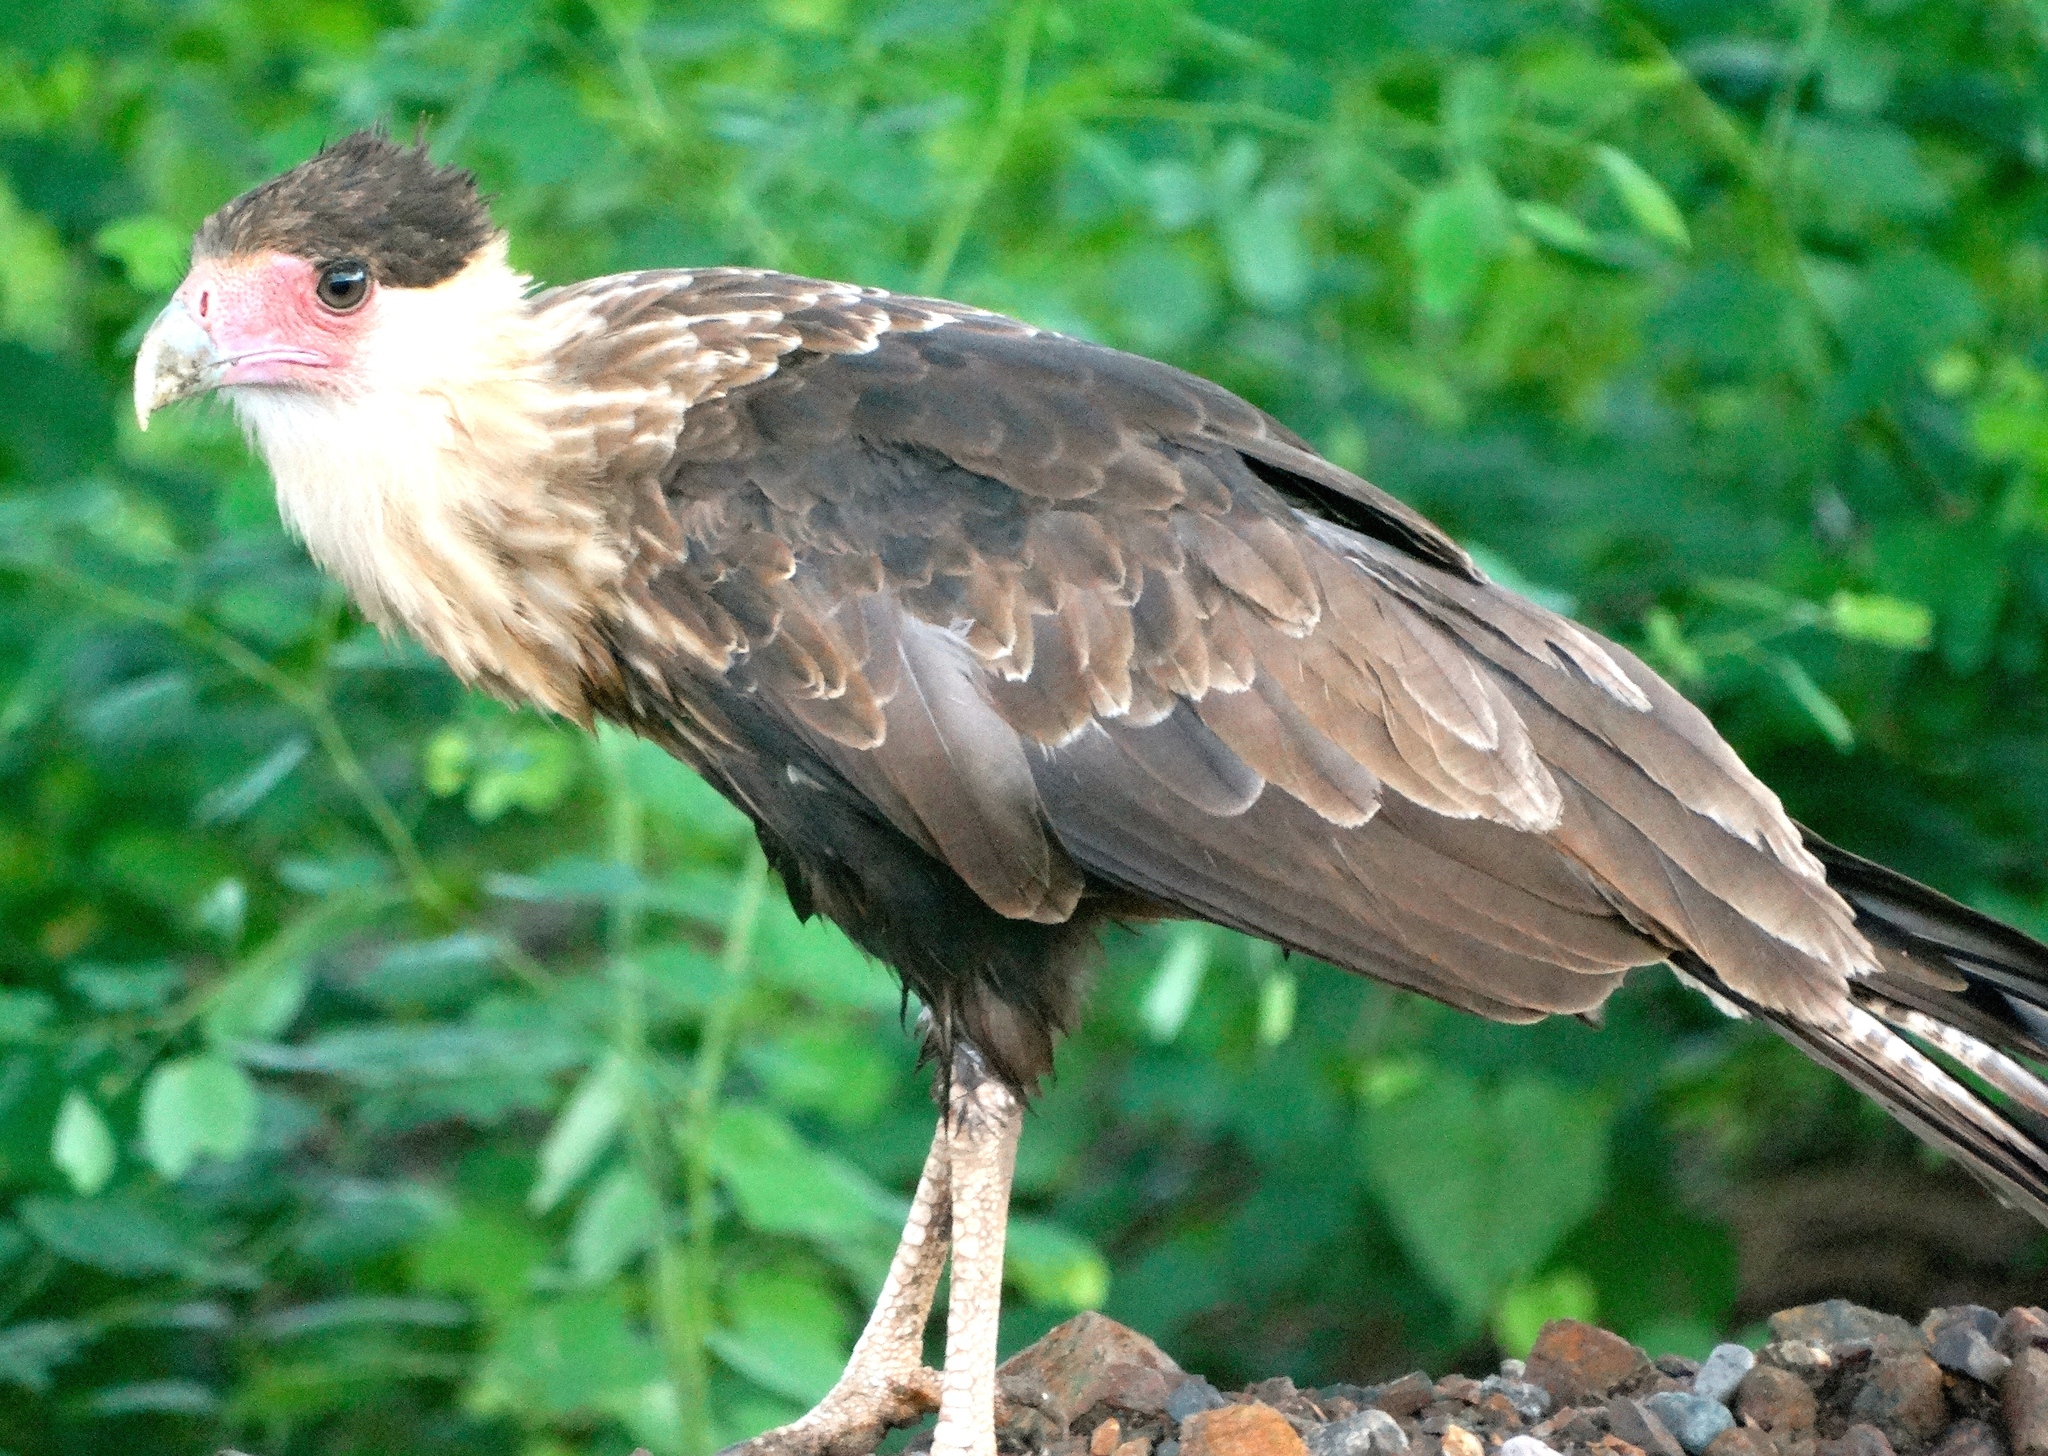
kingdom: Animalia
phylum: Chordata
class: Aves
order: Falconiformes
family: Falconidae
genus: Caracara
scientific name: Caracara plancus
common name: Southern caracara
